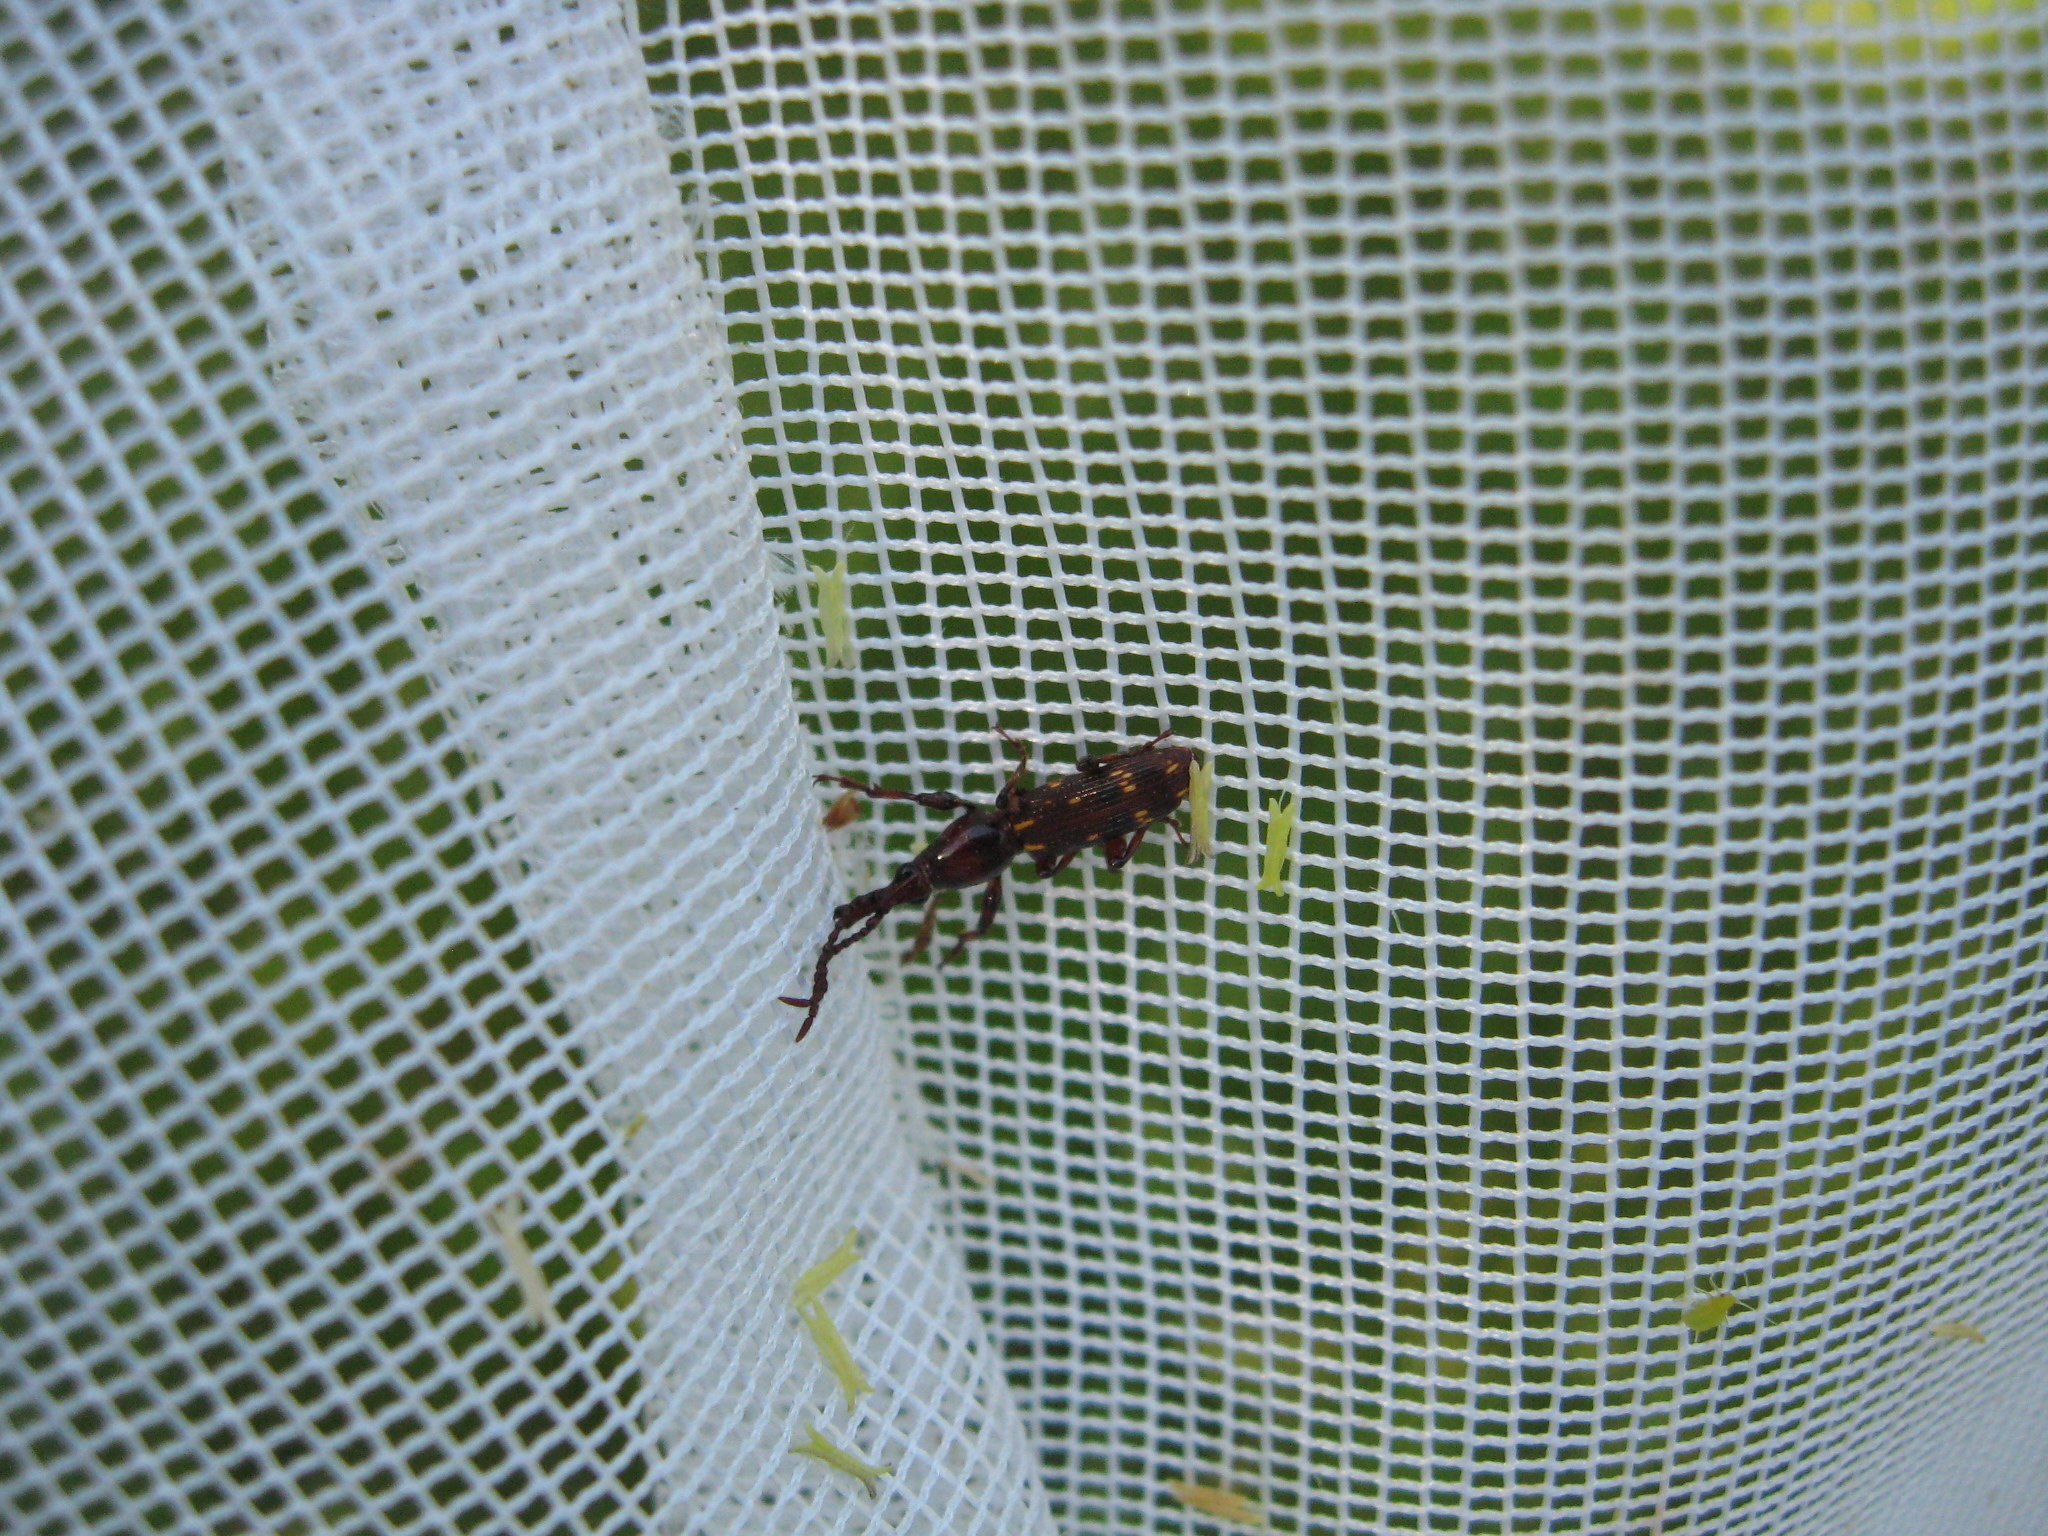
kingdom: Animalia
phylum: Arthropoda
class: Insecta
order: Coleoptera
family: Brentidae
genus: Arrenodes
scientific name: Arrenodes minutus
